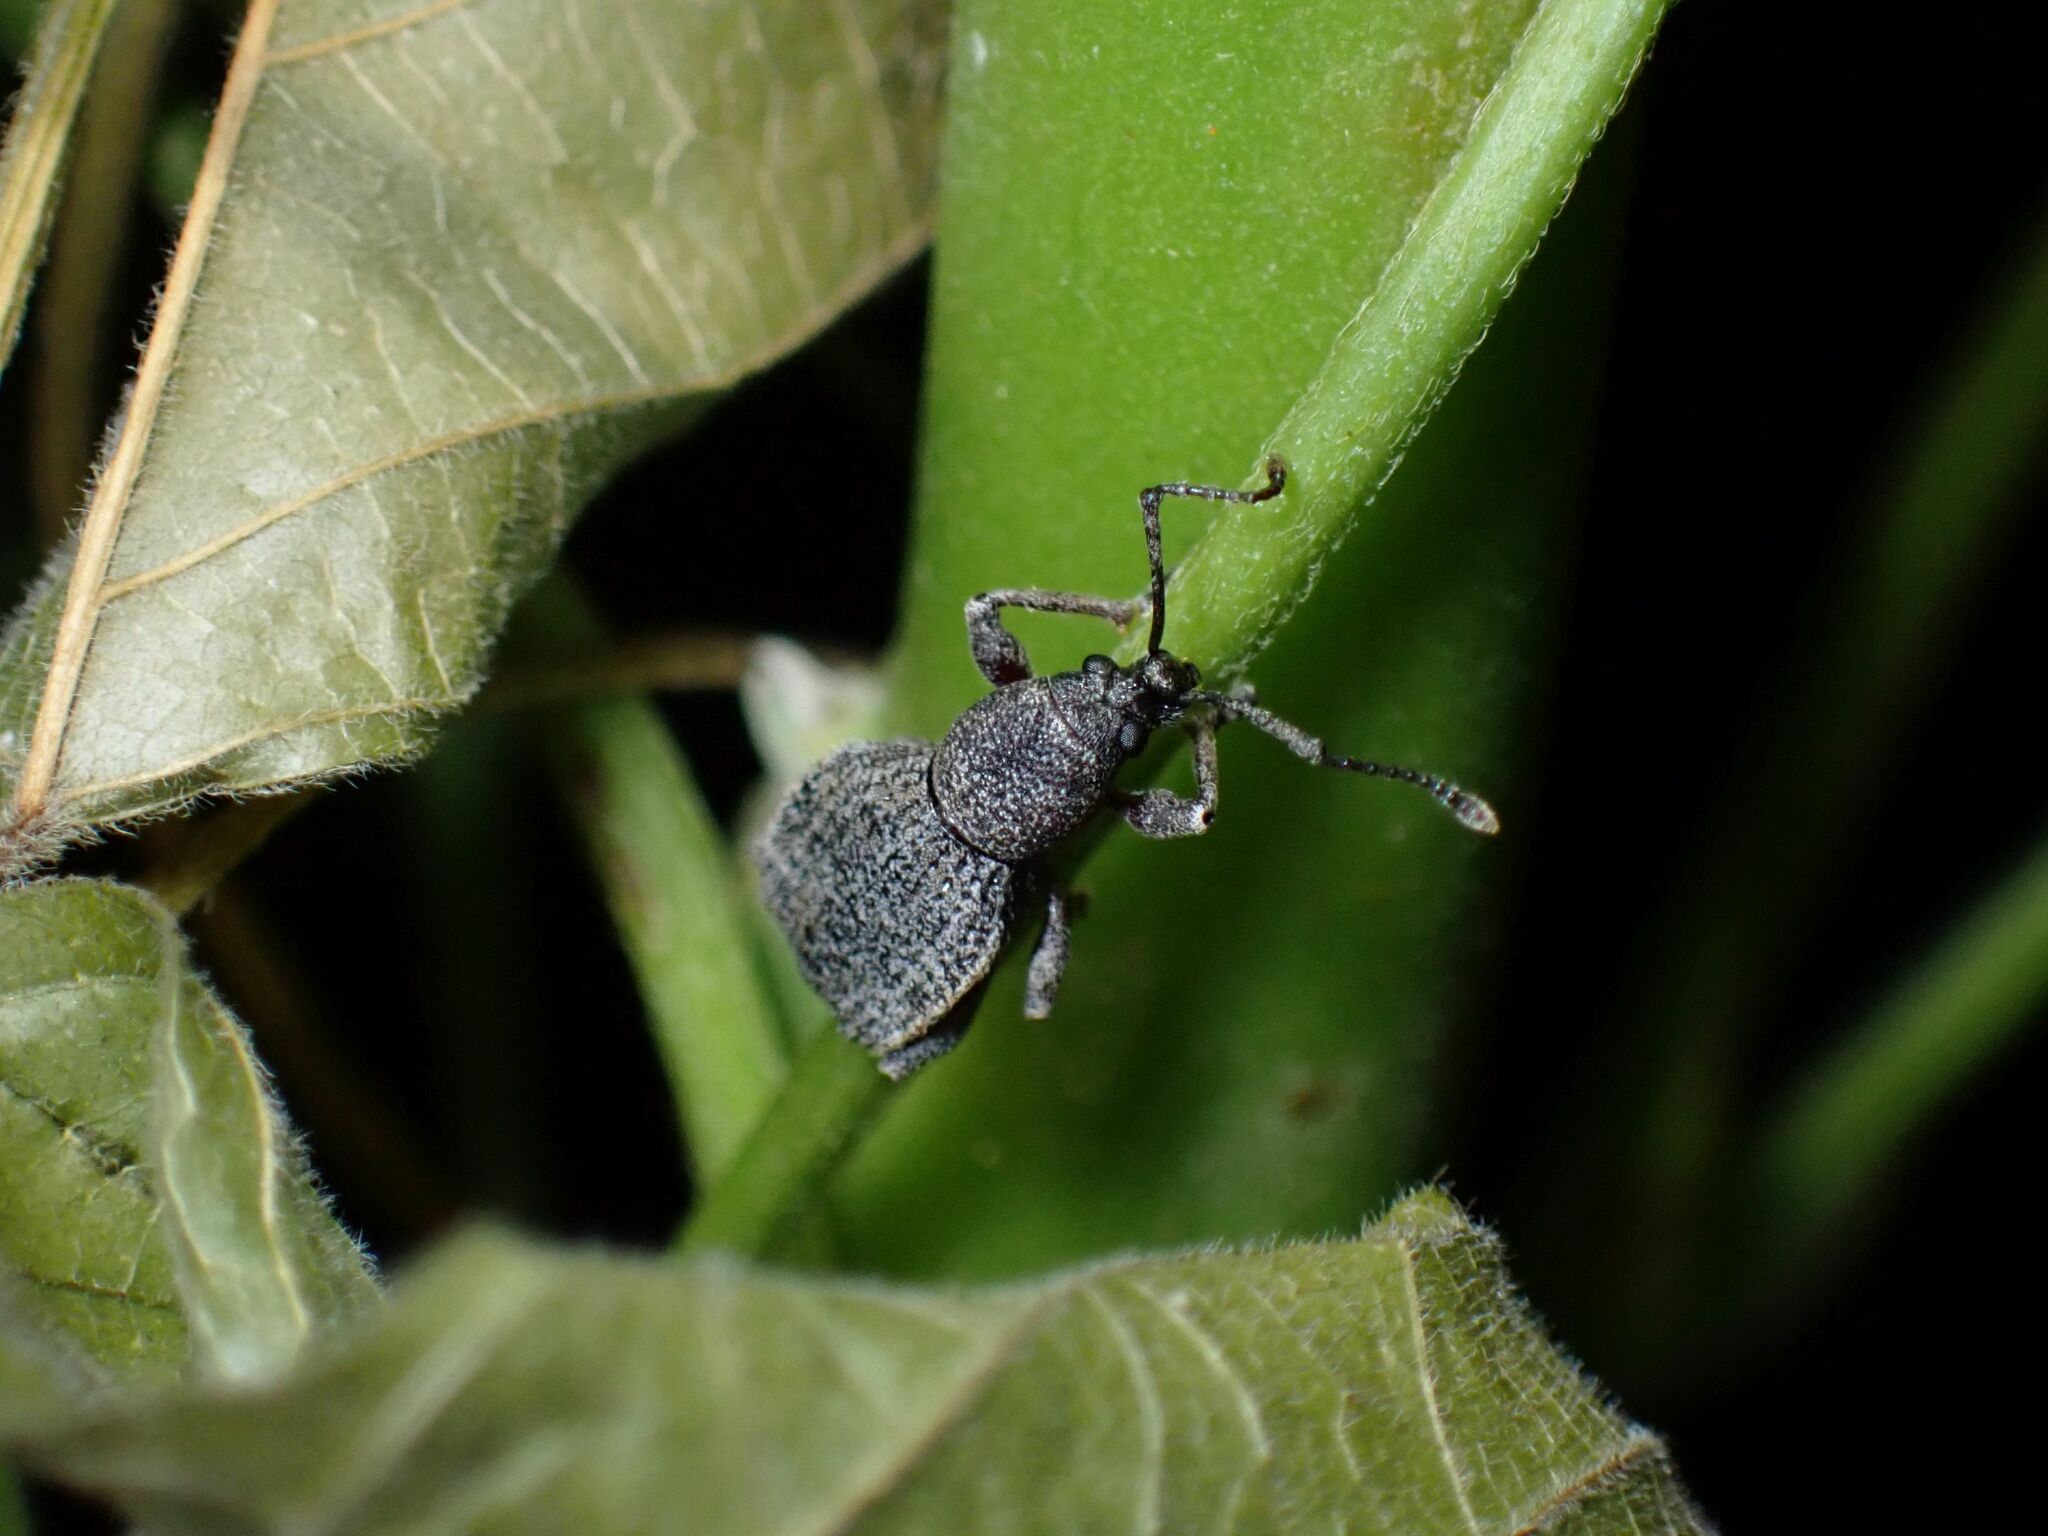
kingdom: Animalia
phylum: Arthropoda
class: Insecta
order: Coleoptera
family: Curculionidae
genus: Platysimus
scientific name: Platysimus septentrionalis
